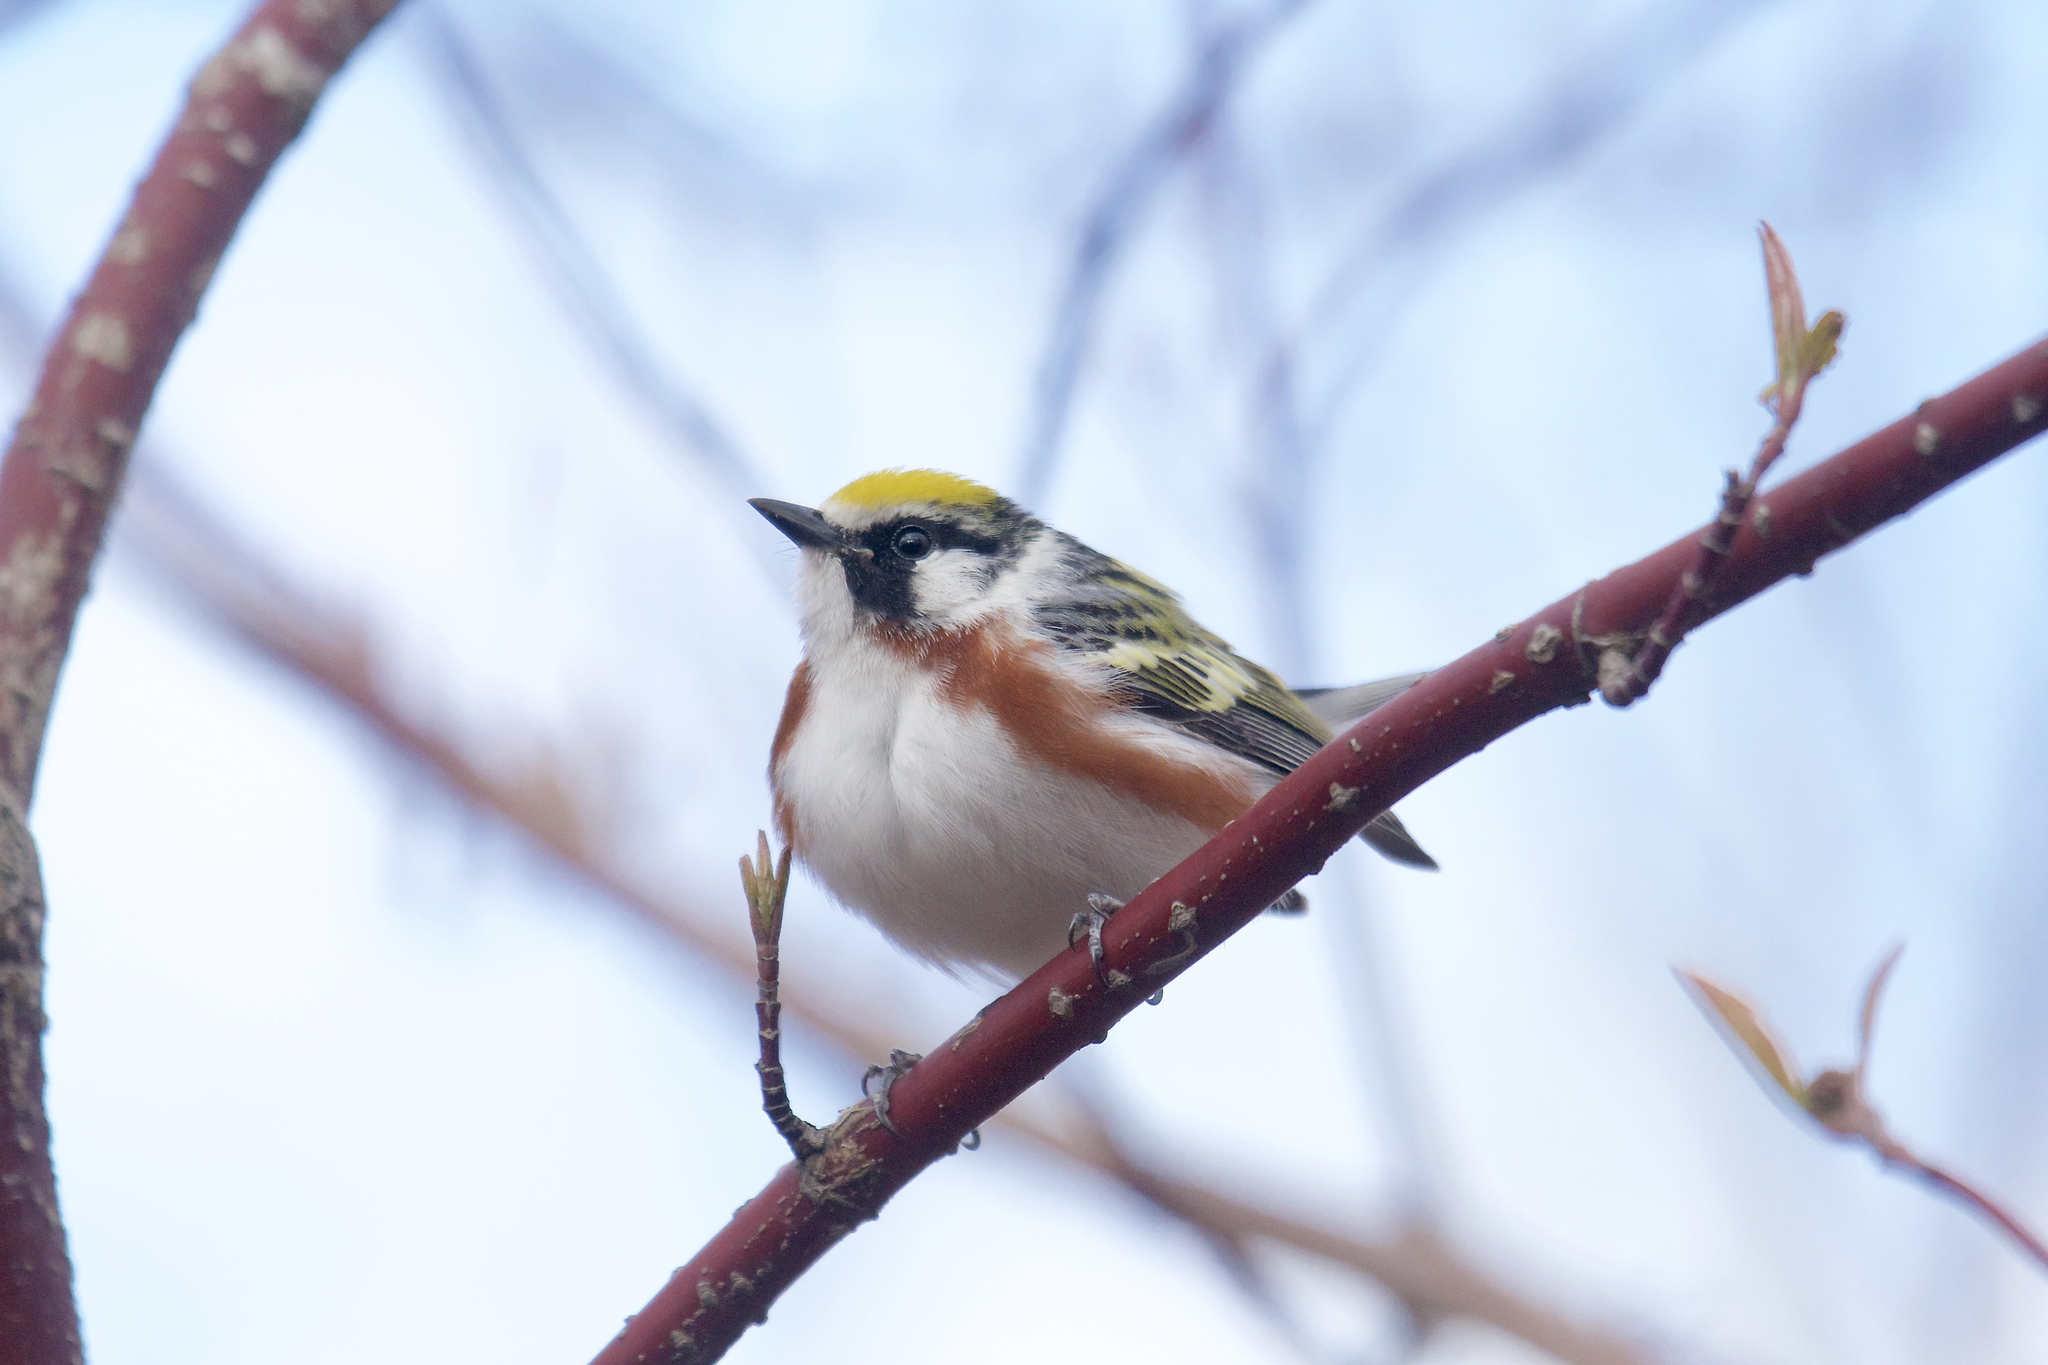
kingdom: Animalia
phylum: Chordata
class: Aves
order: Passeriformes
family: Parulidae
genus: Setophaga
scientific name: Setophaga pensylvanica
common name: Chestnut-sided warbler
